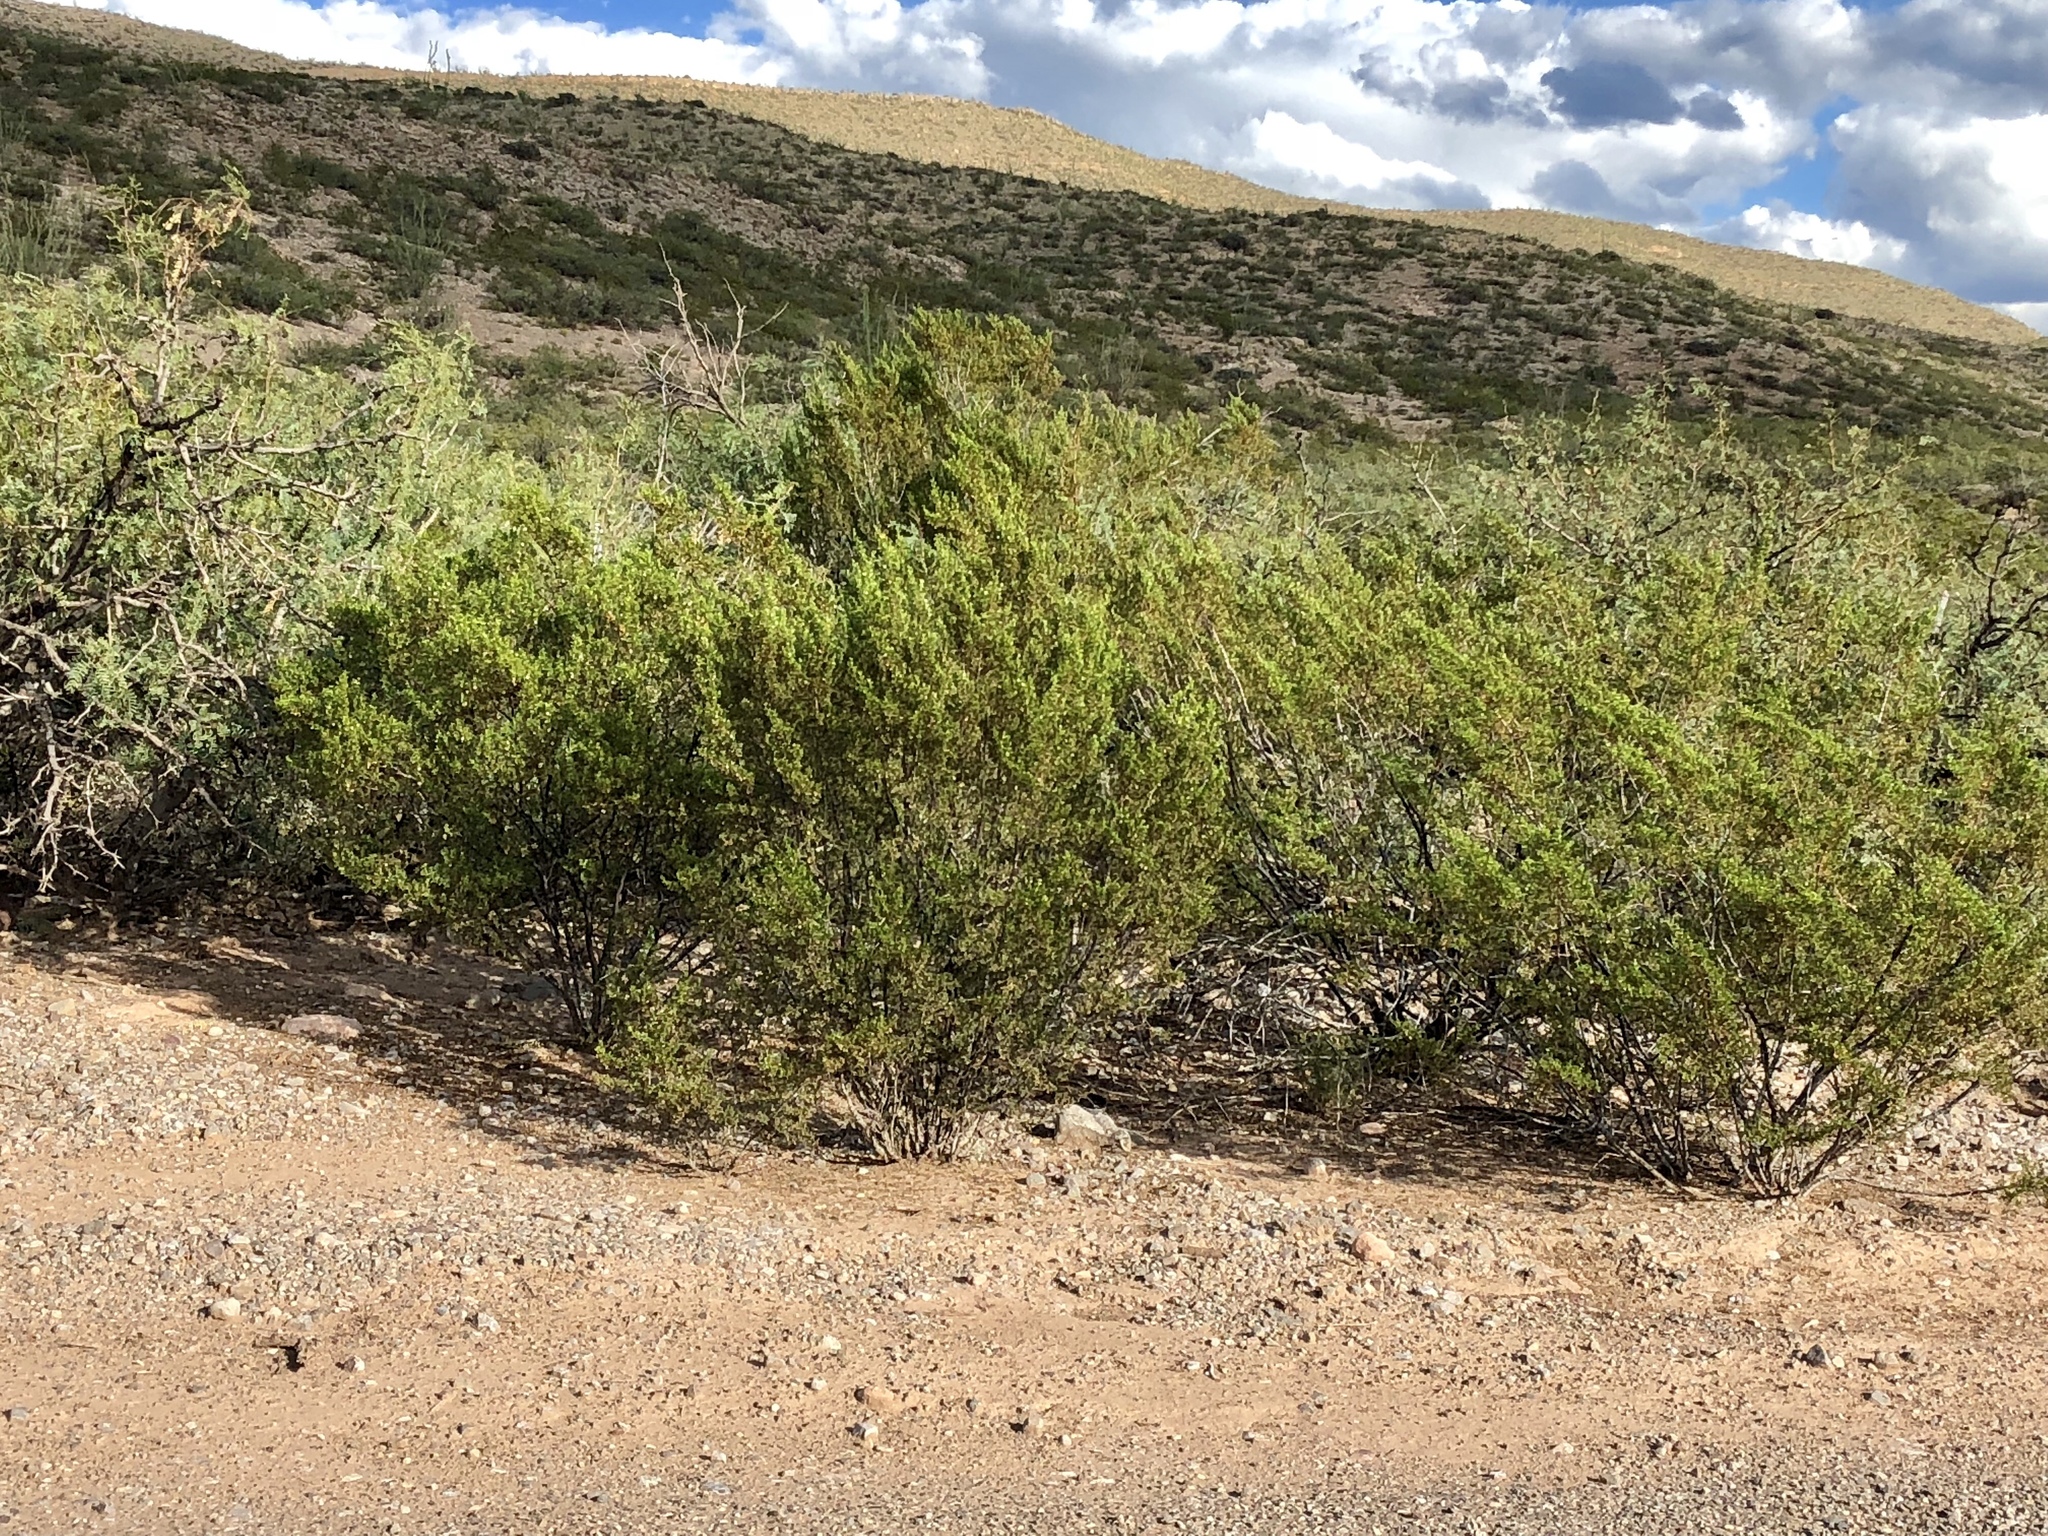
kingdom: Plantae
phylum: Tracheophyta
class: Magnoliopsida
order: Zygophyllales
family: Zygophyllaceae
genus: Larrea
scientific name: Larrea tridentata
